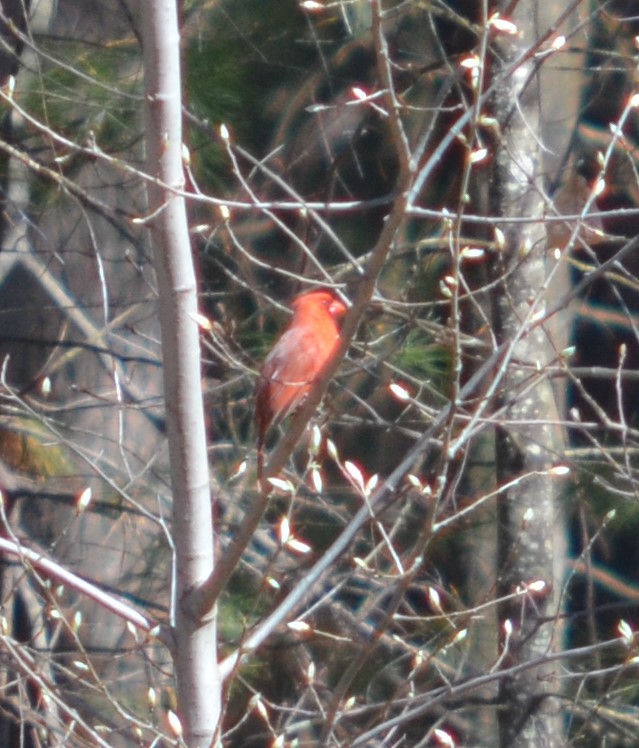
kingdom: Animalia
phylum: Chordata
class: Aves
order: Passeriformes
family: Cardinalidae
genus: Cardinalis
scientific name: Cardinalis cardinalis
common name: Northern cardinal
